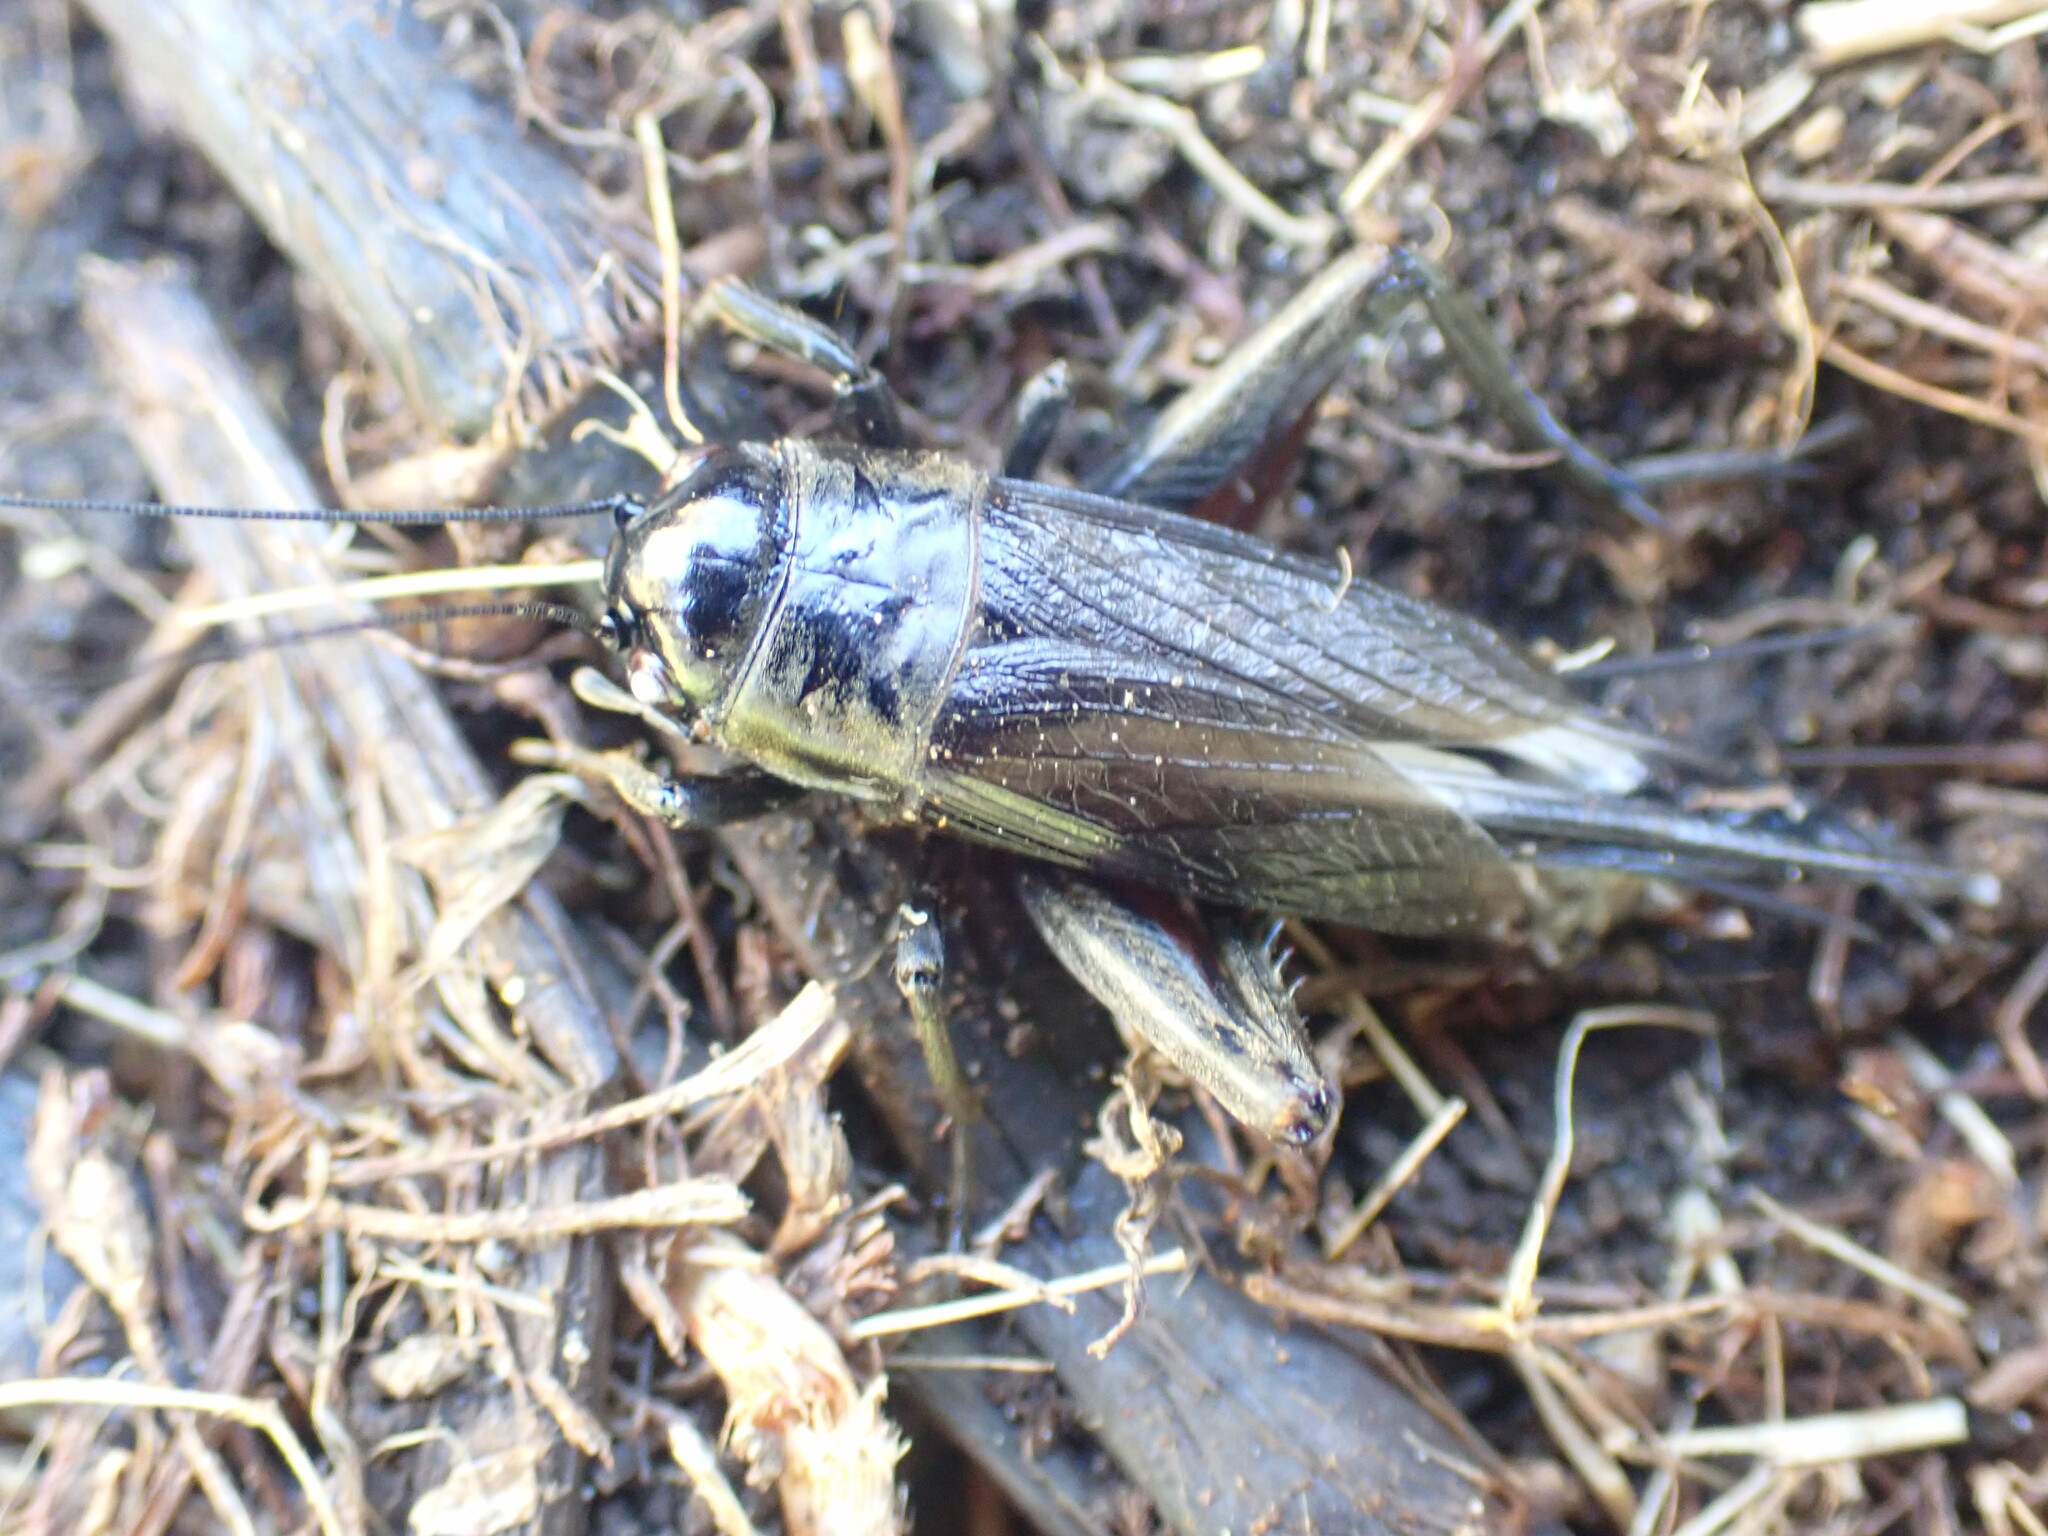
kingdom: Animalia
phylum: Arthropoda
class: Insecta
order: Orthoptera
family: Gryllidae
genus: Teleogryllus
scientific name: Teleogryllus commodus
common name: Black field cricket
